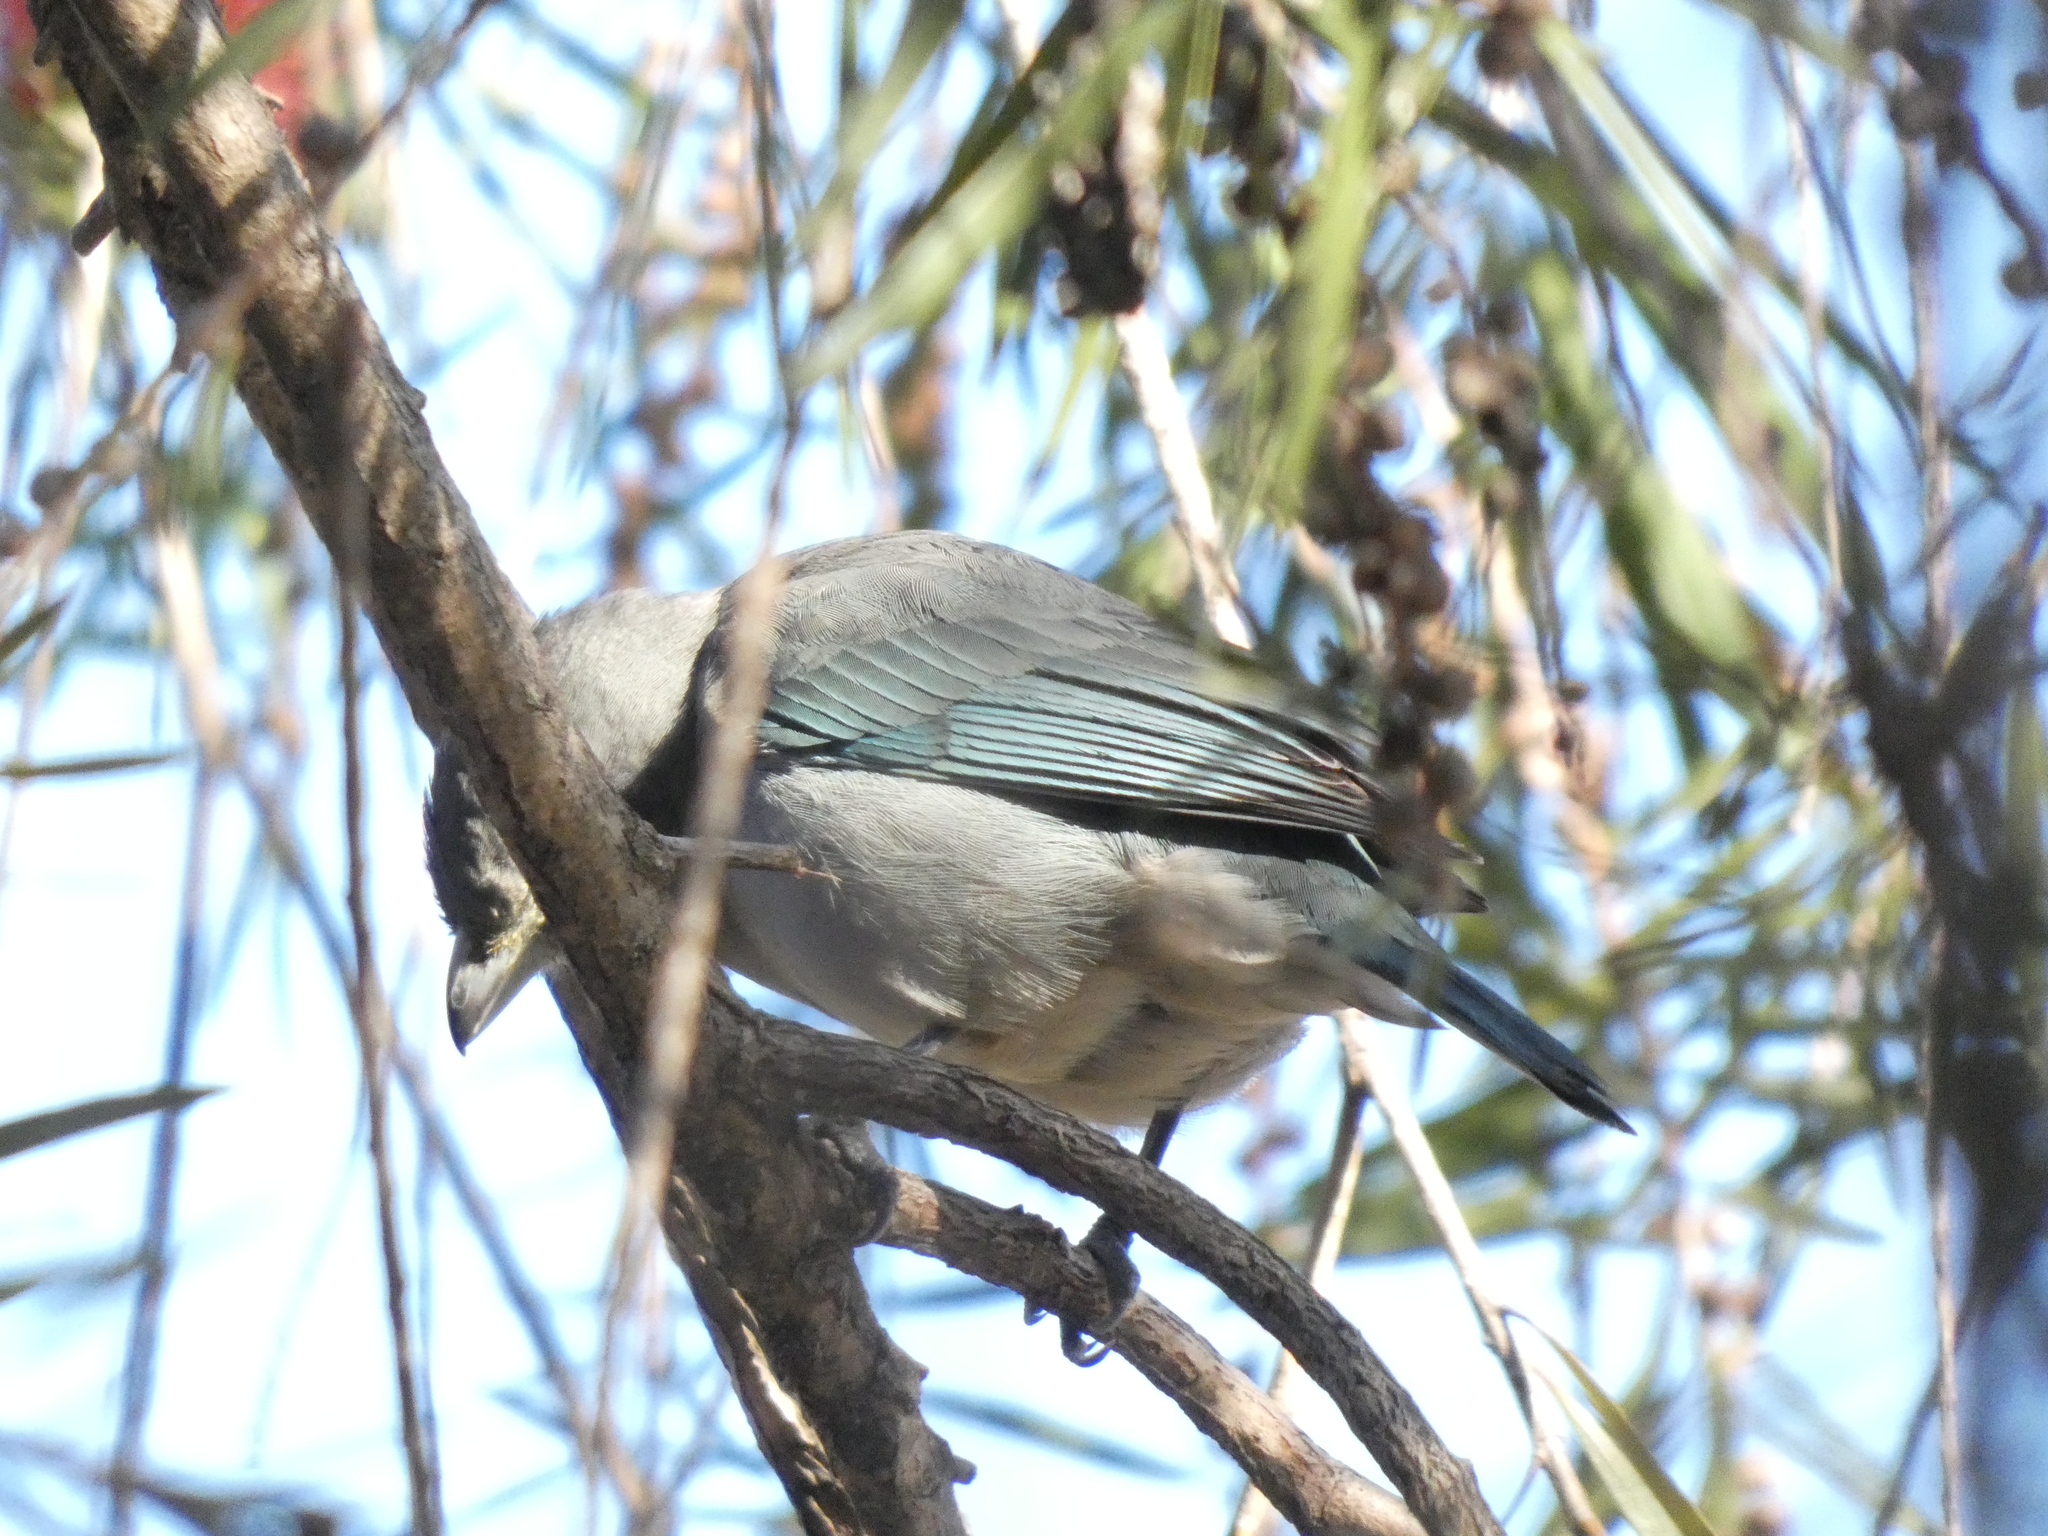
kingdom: Animalia
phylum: Chordata
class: Aves
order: Passeriformes
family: Thraupidae
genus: Thraupis
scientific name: Thraupis sayaca
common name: Sayaca tanager
